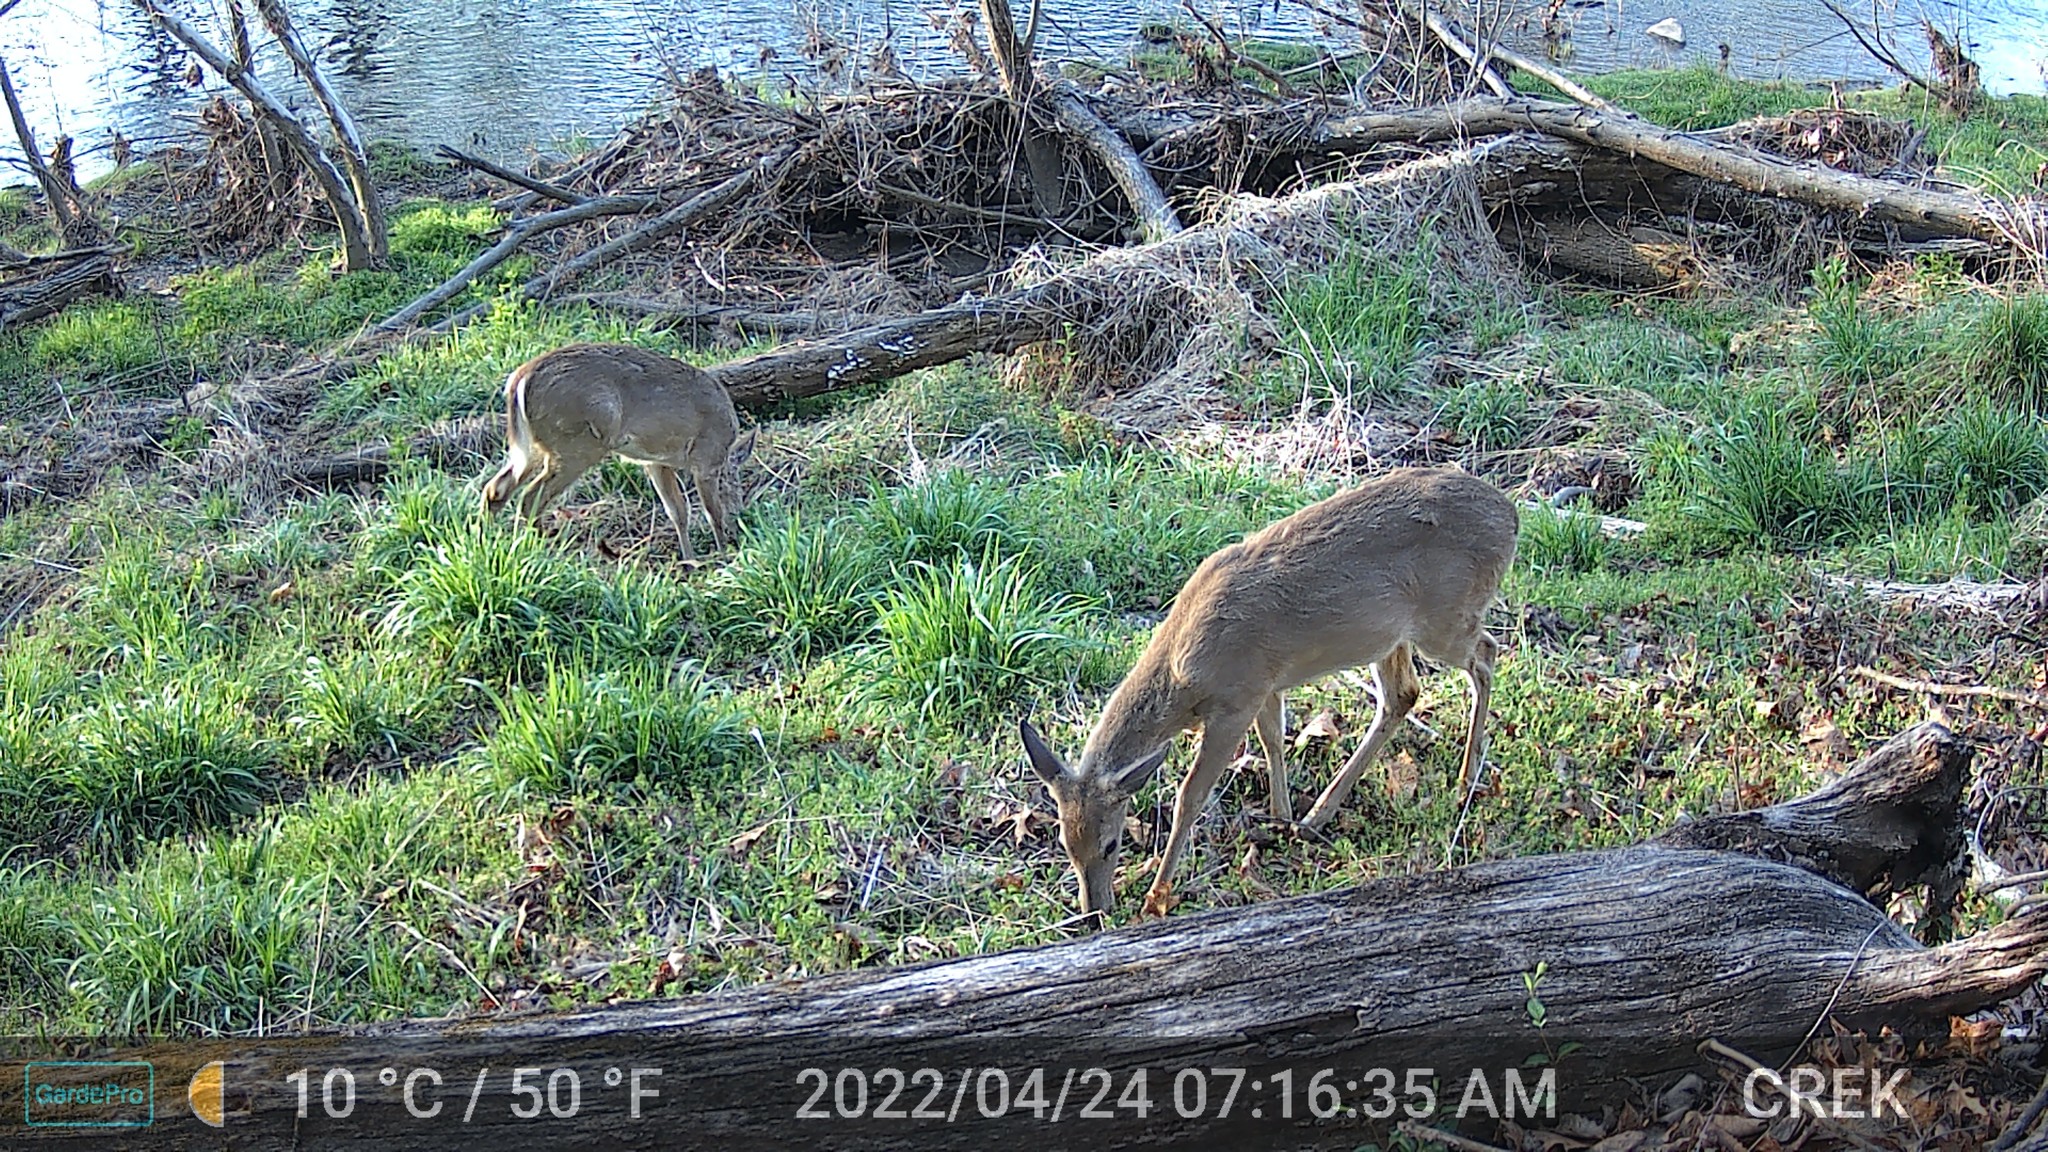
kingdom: Animalia
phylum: Chordata
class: Mammalia
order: Artiodactyla
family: Cervidae
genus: Odocoileus
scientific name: Odocoileus virginianus
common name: White-tailed deer
